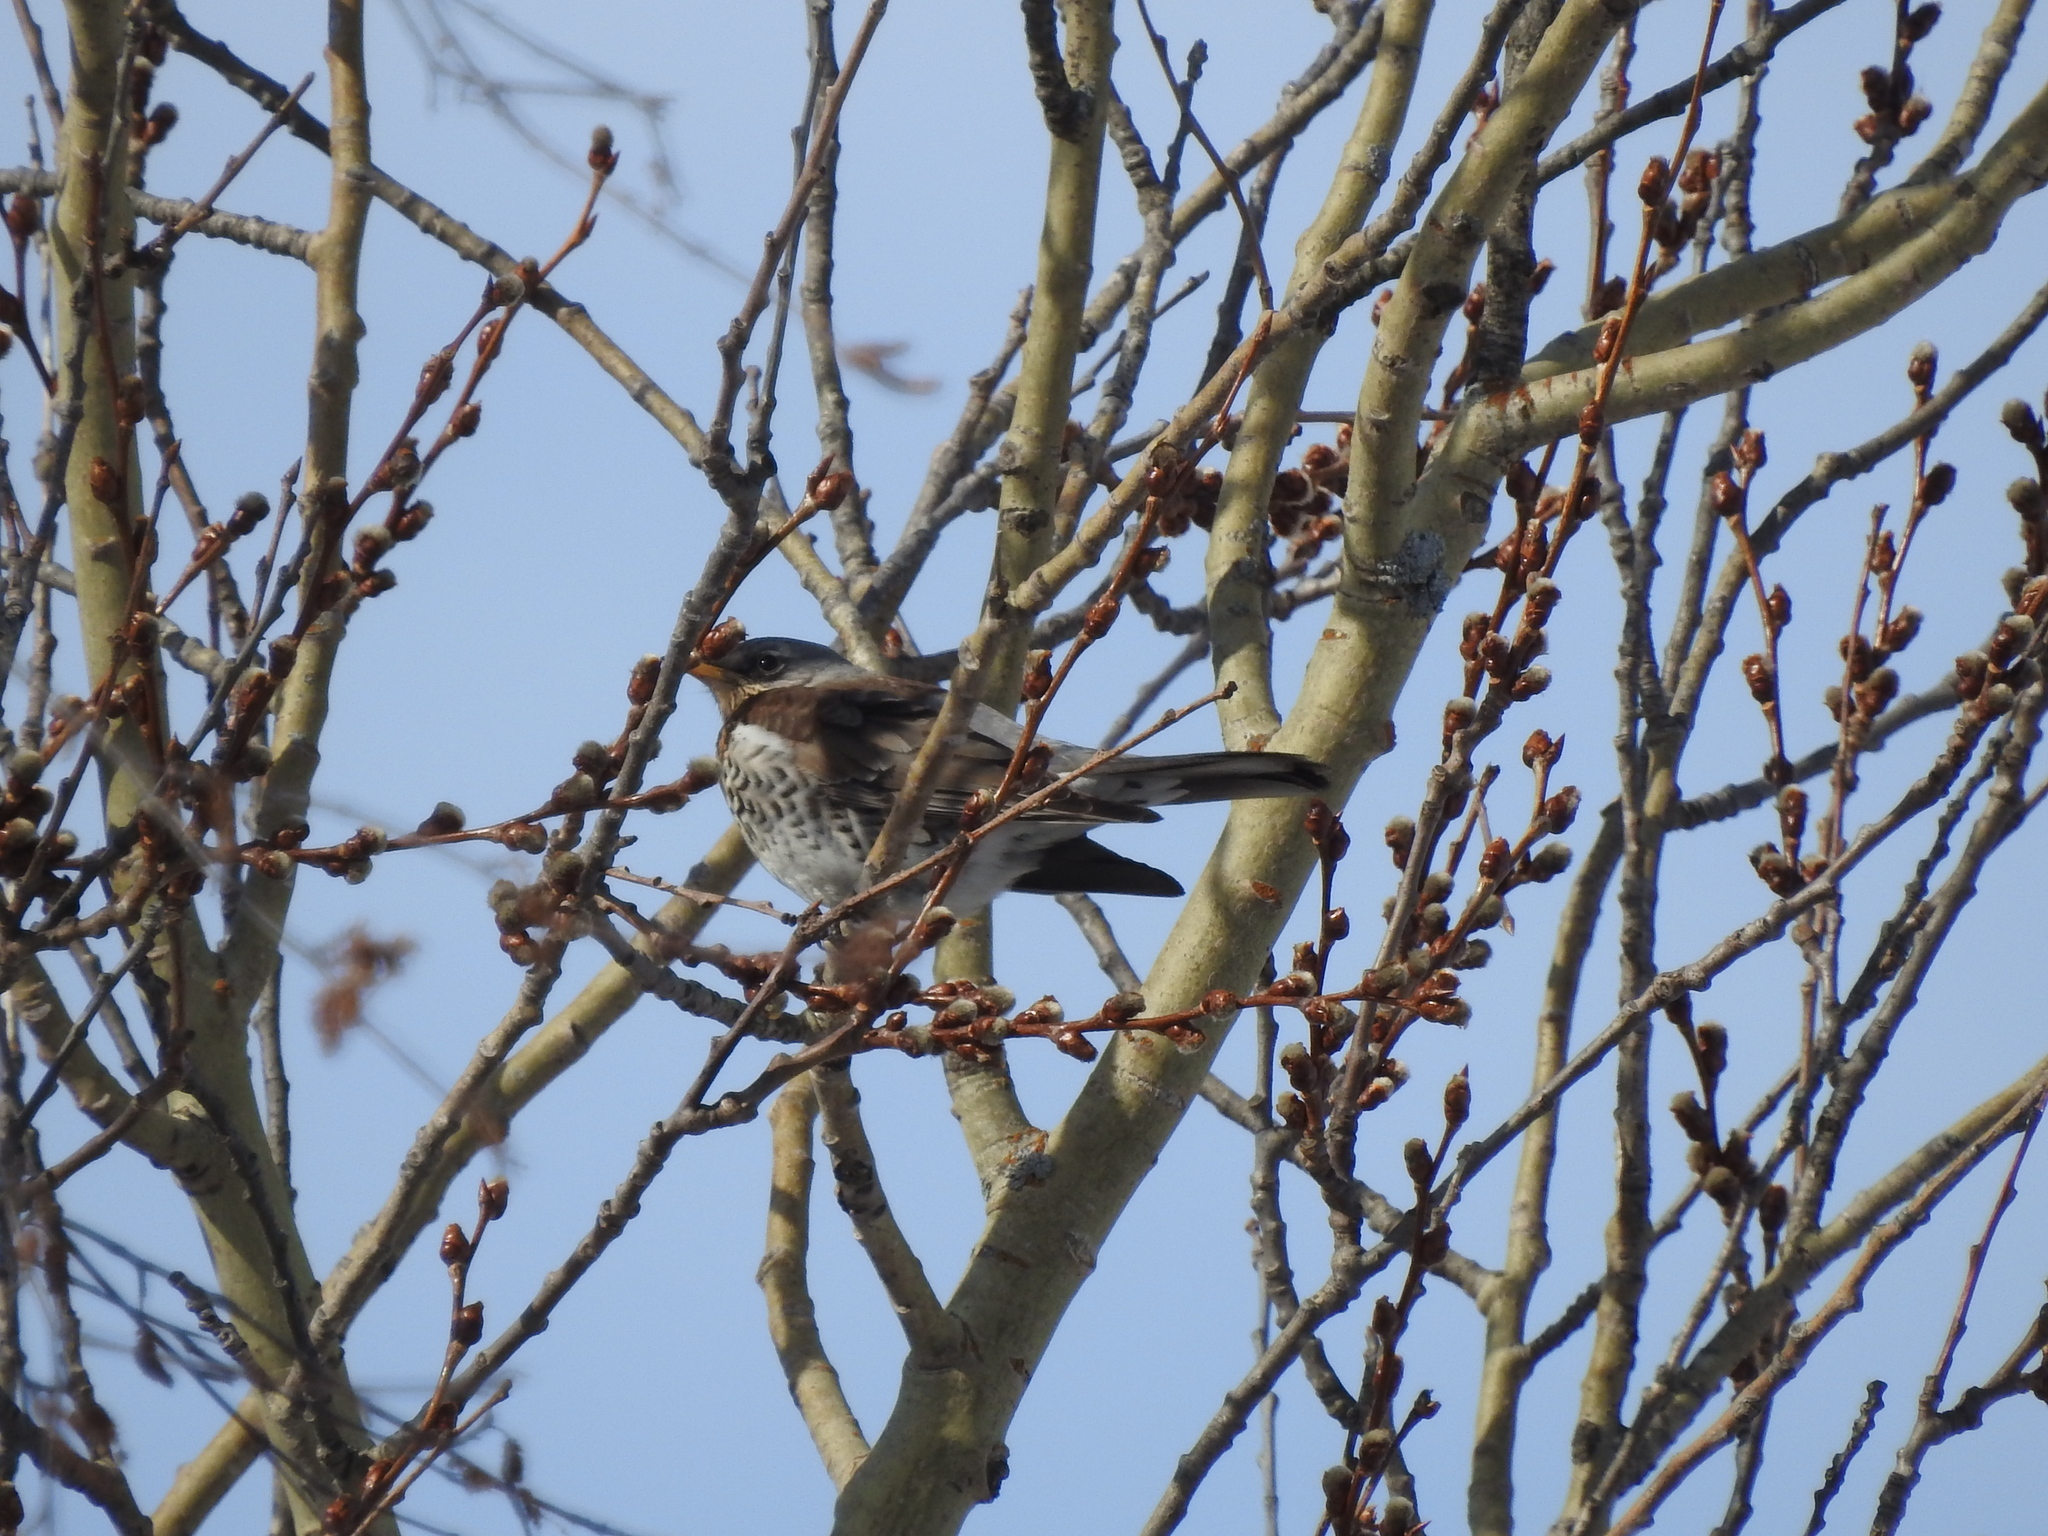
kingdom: Animalia
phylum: Chordata
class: Aves
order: Passeriformes
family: Turdidae
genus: Turdus
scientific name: Turdus pilaris
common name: Fieldfare
